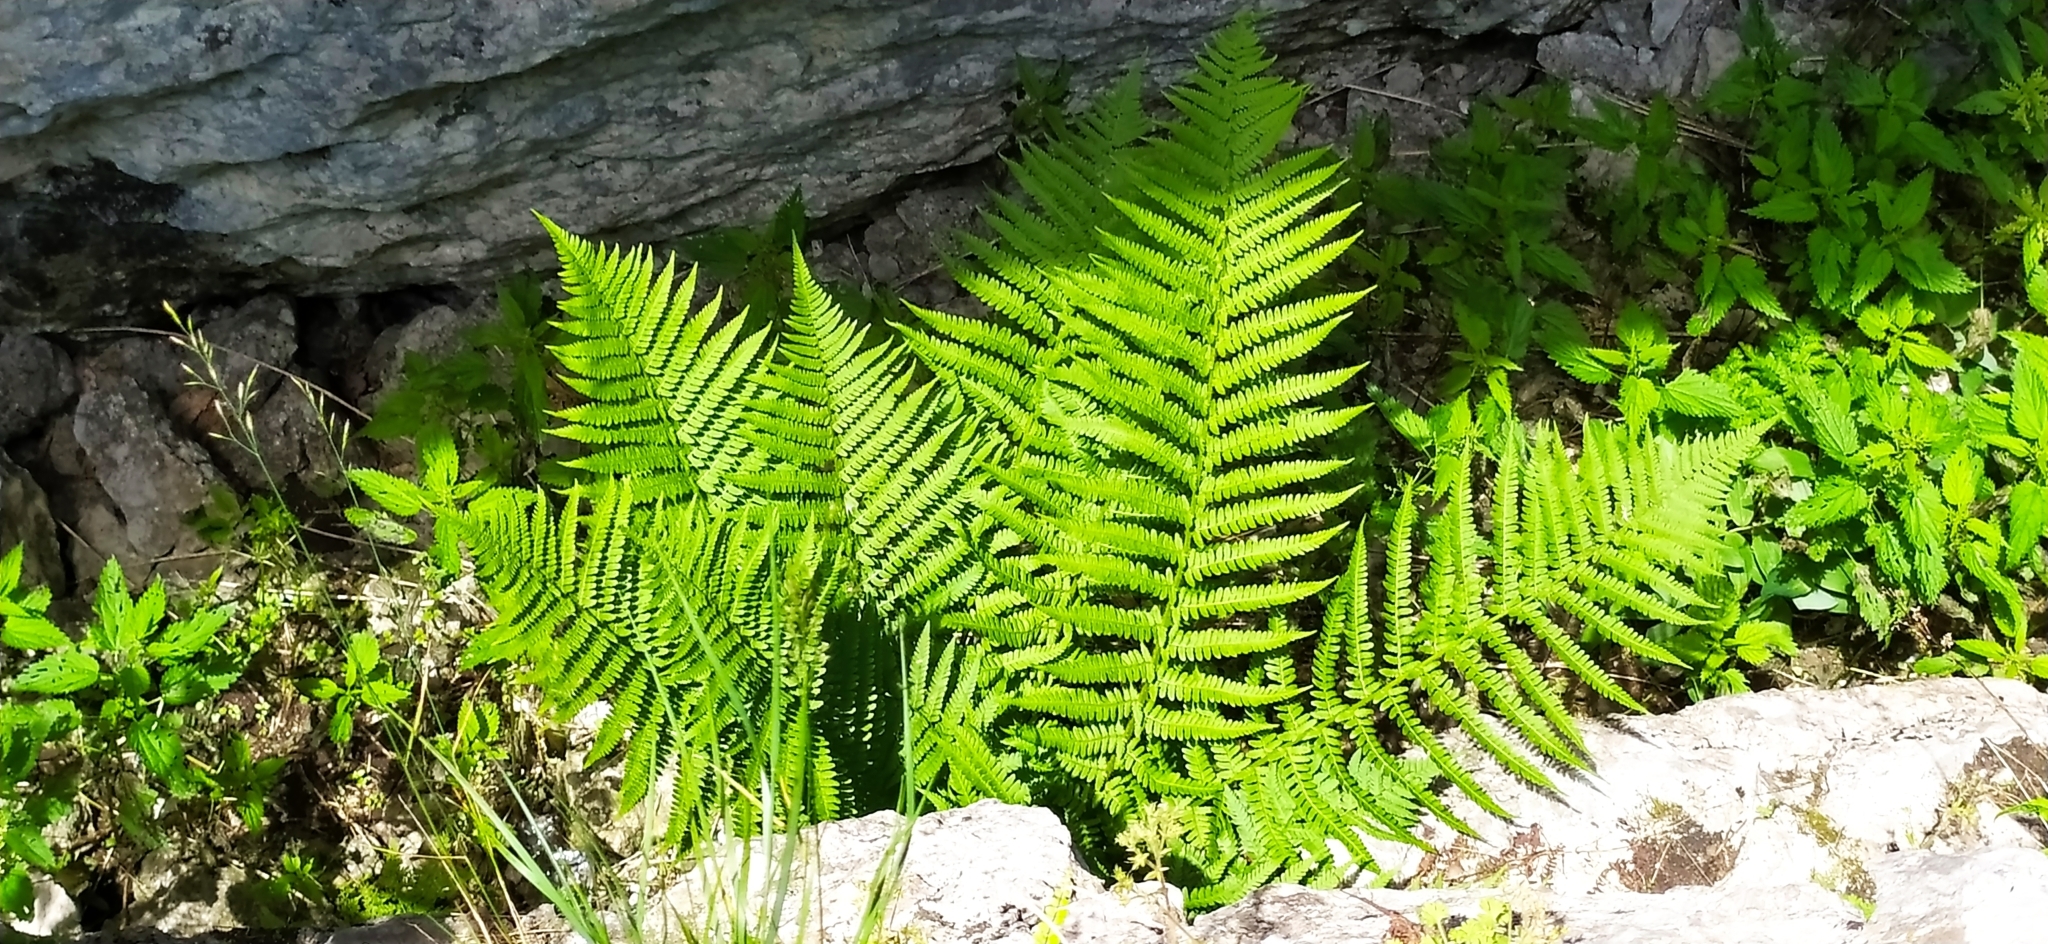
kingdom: Plantae
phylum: Tracheophyta
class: Polypodiopsida
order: Polypodiales
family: Dryopteridaceae
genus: Dryopteris
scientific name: Dryopteris filix-mas
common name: Male fern
